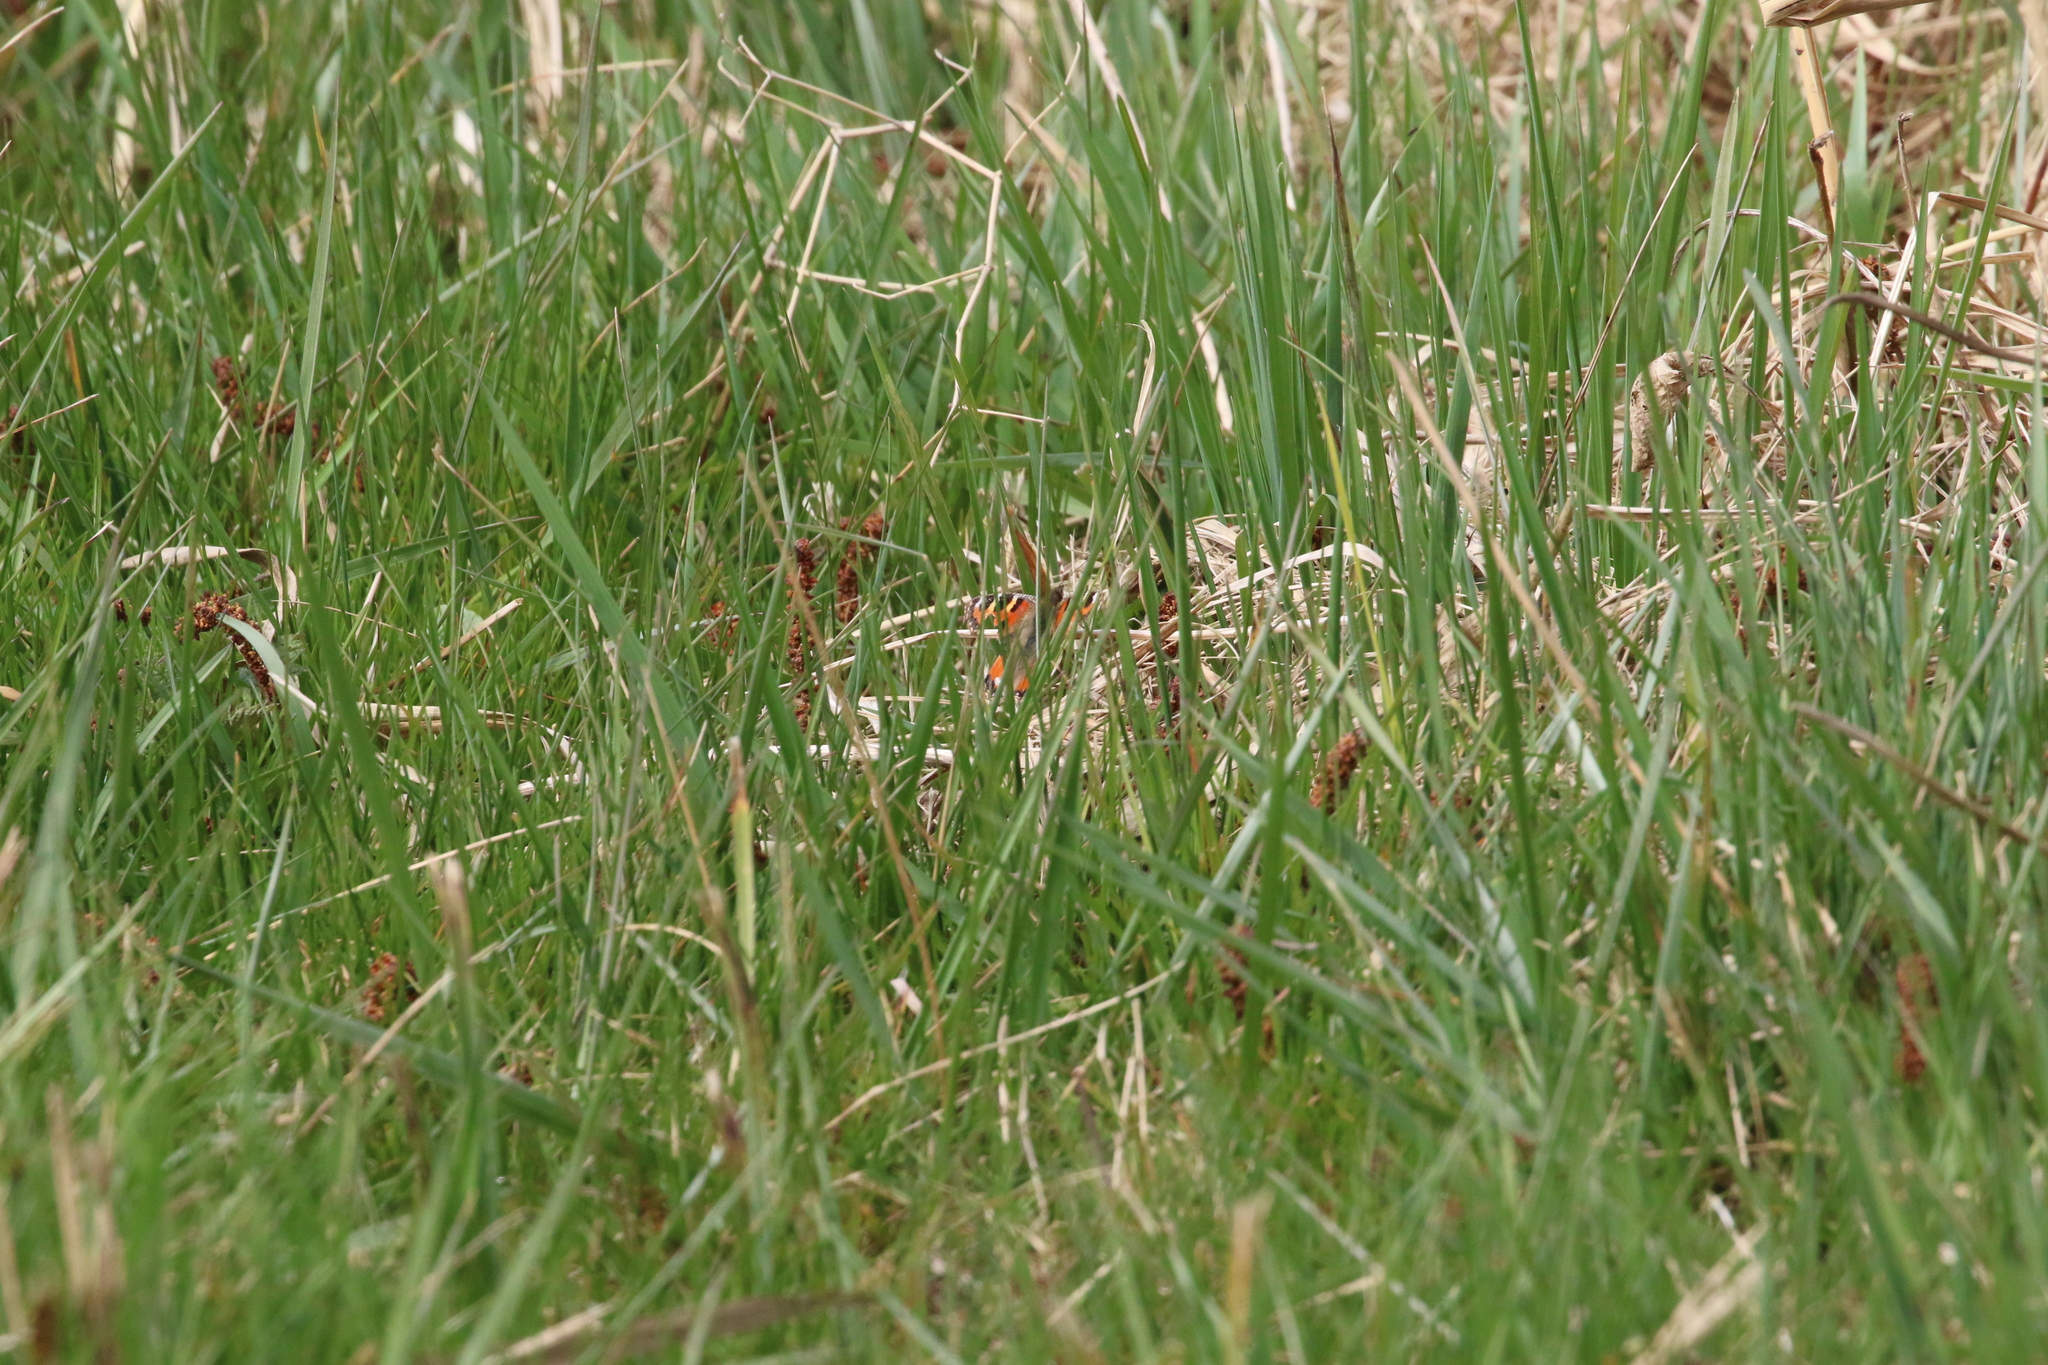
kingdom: Animalia
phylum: Arthropoda
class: Insecta
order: Lepidoptera
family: Nymphalidae
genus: Aglais
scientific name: Aglais urticae
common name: Small tortoiseshell
